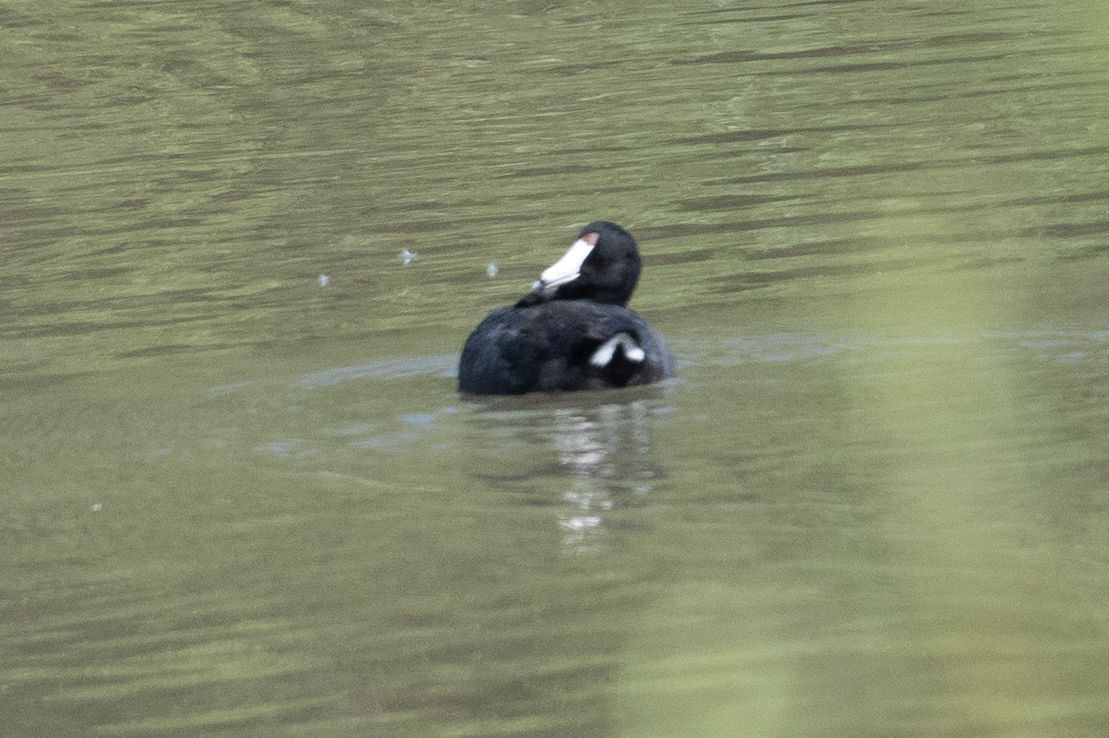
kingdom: Animalia
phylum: Chordata
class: Aves
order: Gruiformes
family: Rallidae
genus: Fulica
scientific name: Fulica americana
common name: American coot
